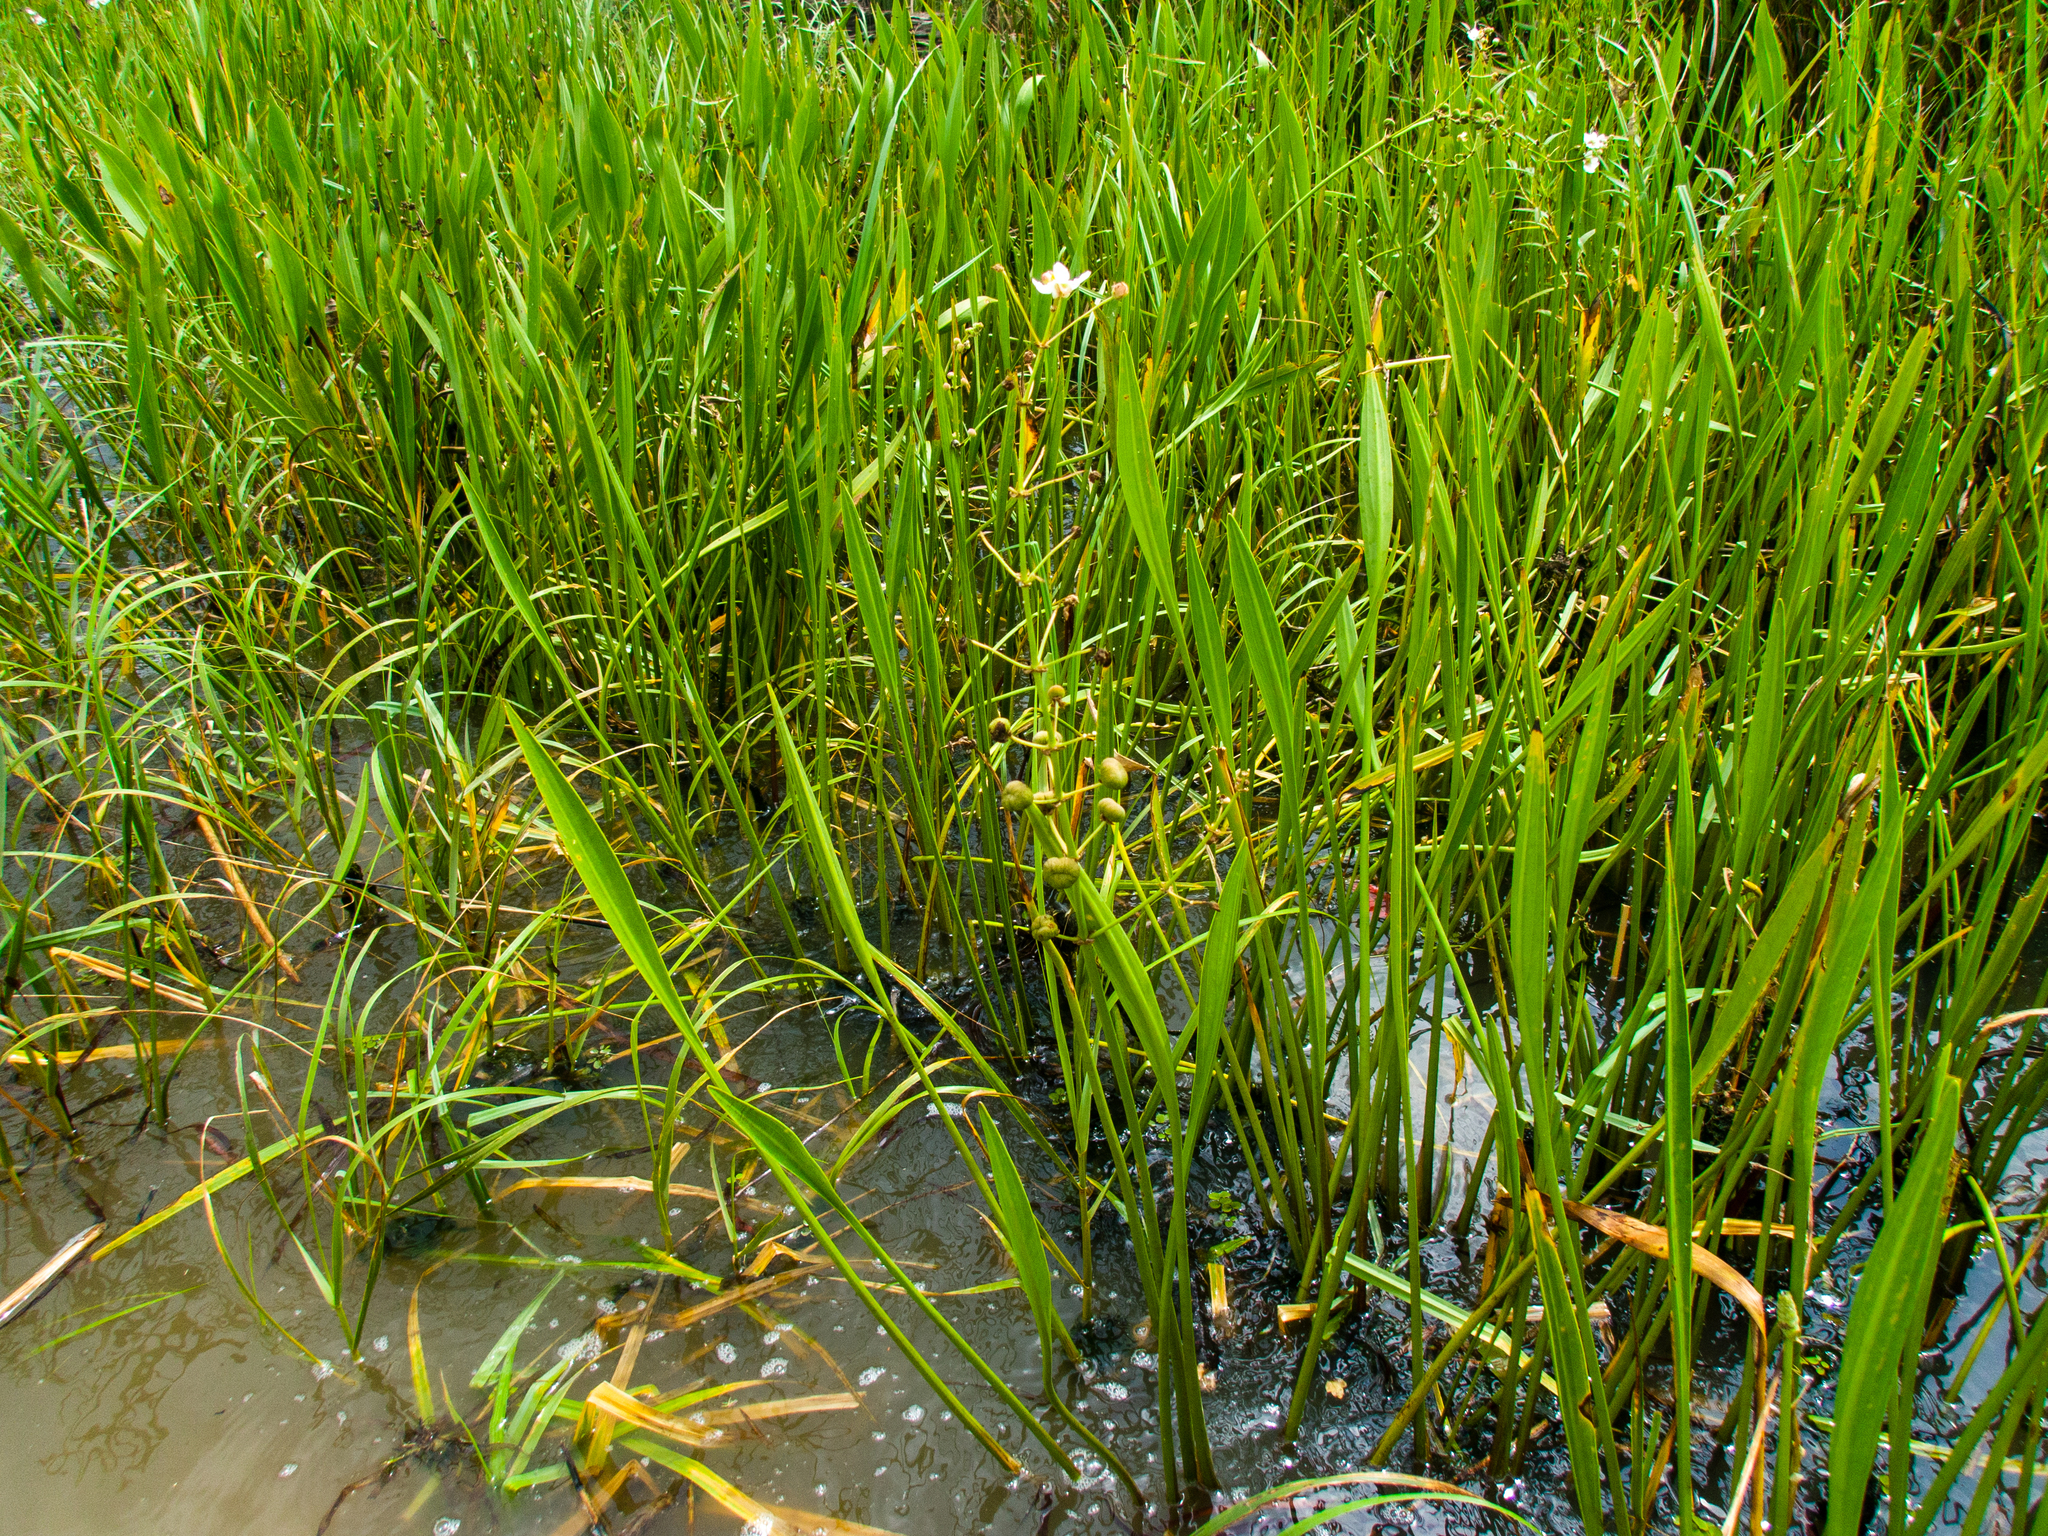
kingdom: Plantae
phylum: Tracheophyta
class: Liliopsida
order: Alismatales
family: Alismataceae
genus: Sagittaria
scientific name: Sagittaria lancifolia
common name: Lance-leaf arrowhead
